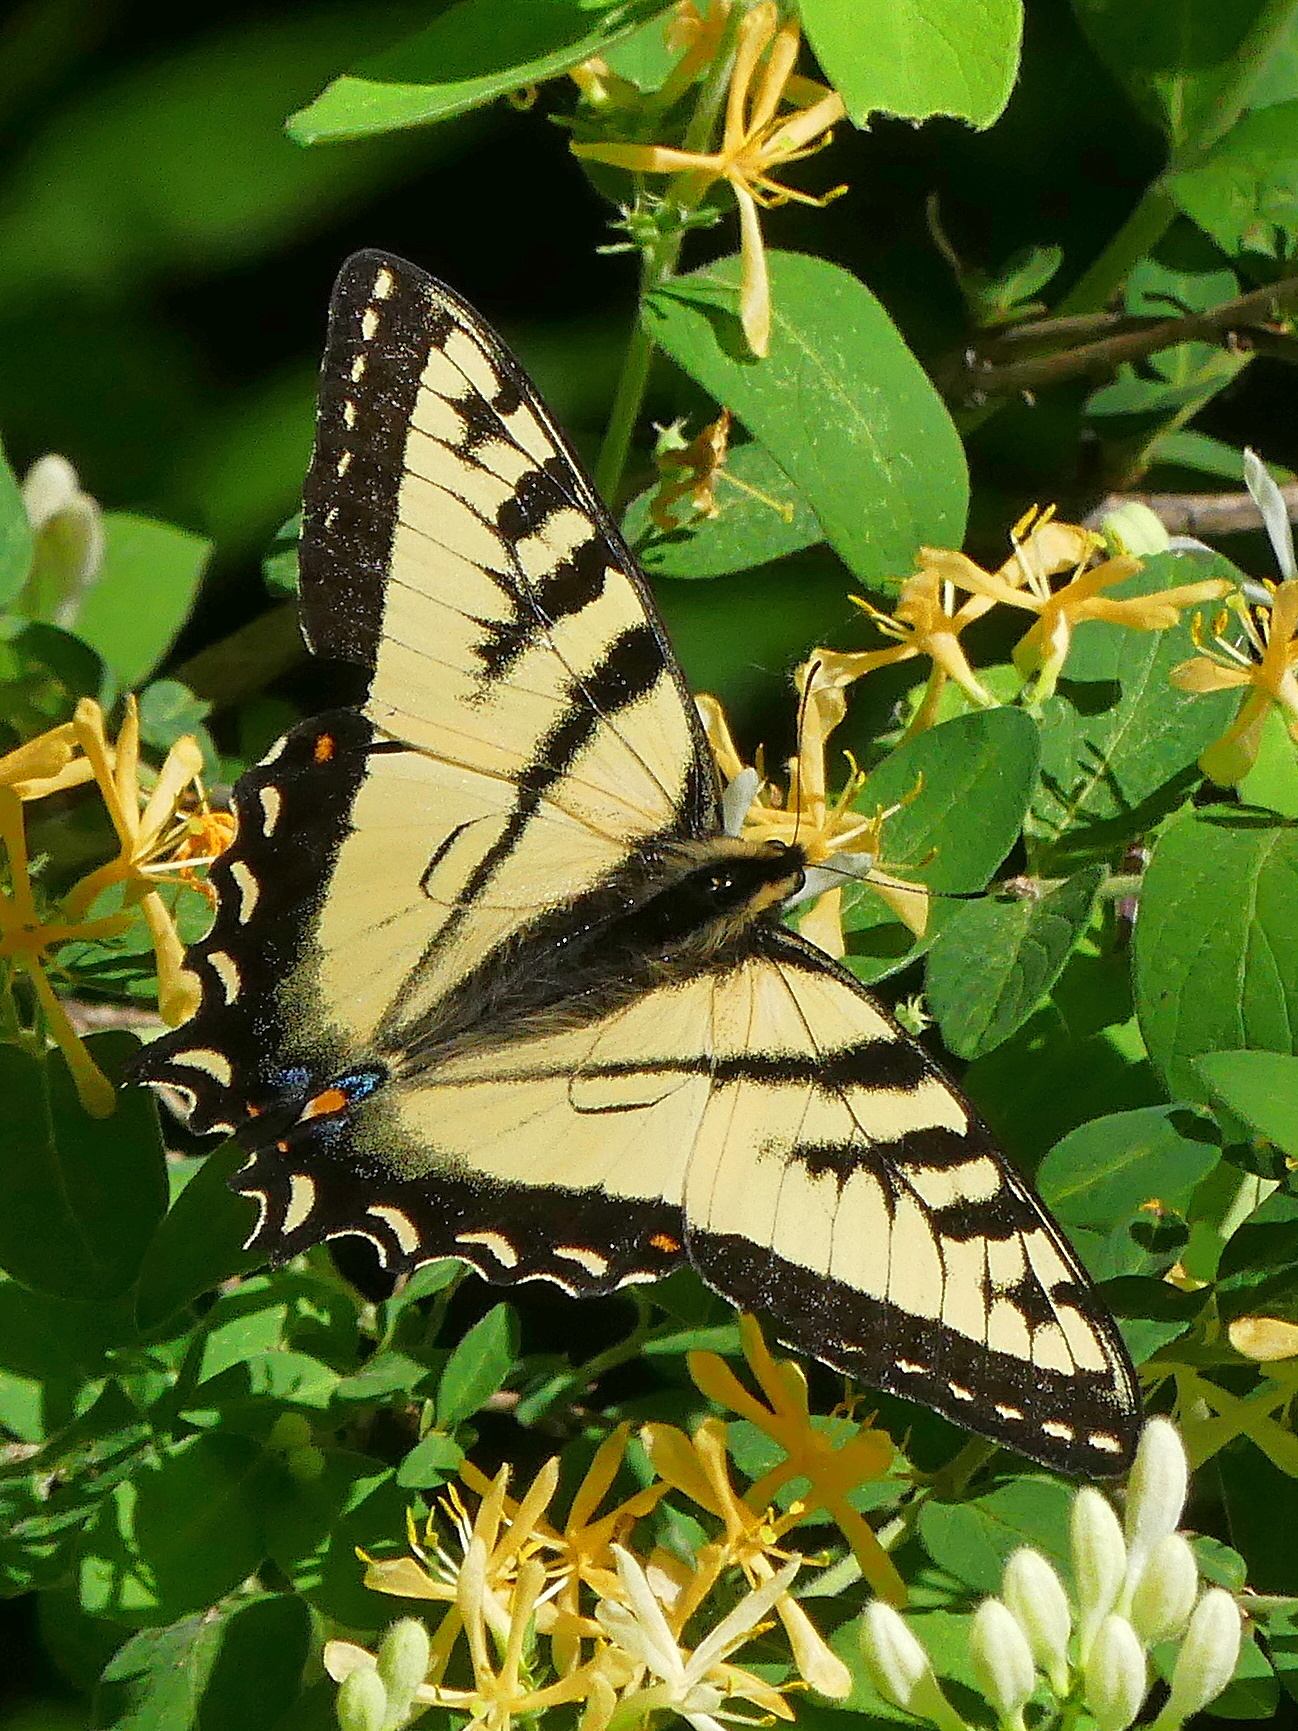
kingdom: Animalia
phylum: Arthropoda
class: Insecta
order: Lepidoptera
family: Papilionidae
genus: Papilio
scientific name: Papilio canadensis
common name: Canadian tiger swallowtail
